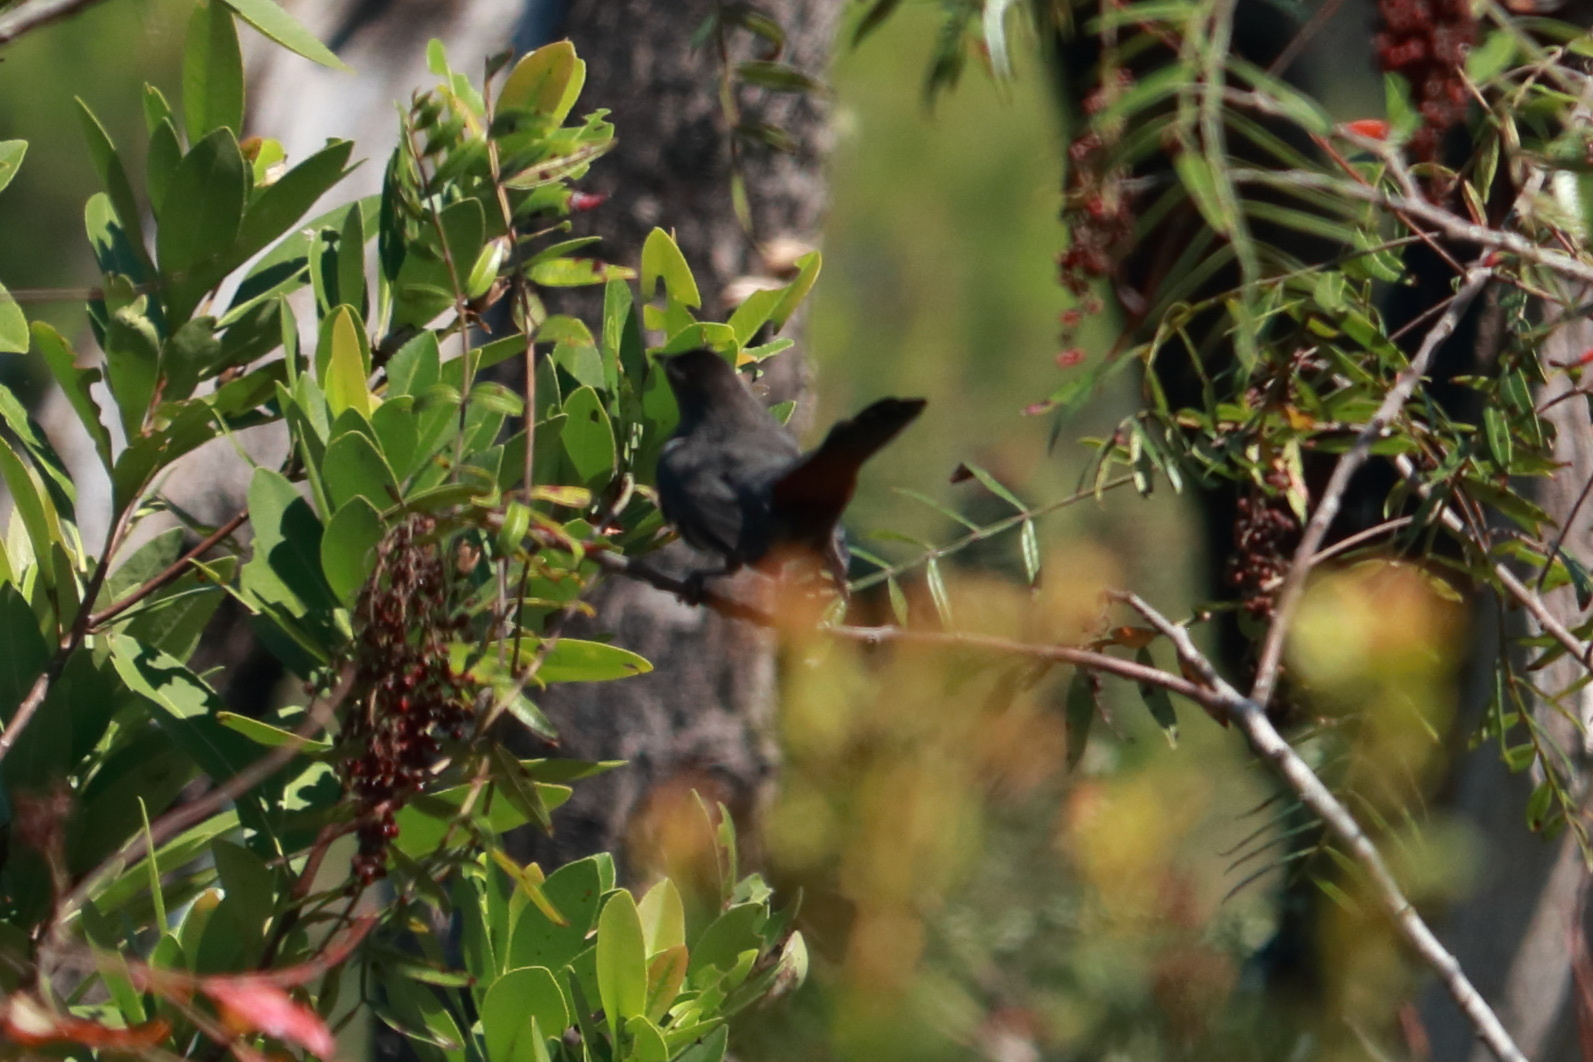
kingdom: Animalia
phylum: Chordata
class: Aves
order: Passeriformes
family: Mimidae
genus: Dumetella
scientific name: Dumetella carolinensis
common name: Gray catbird
